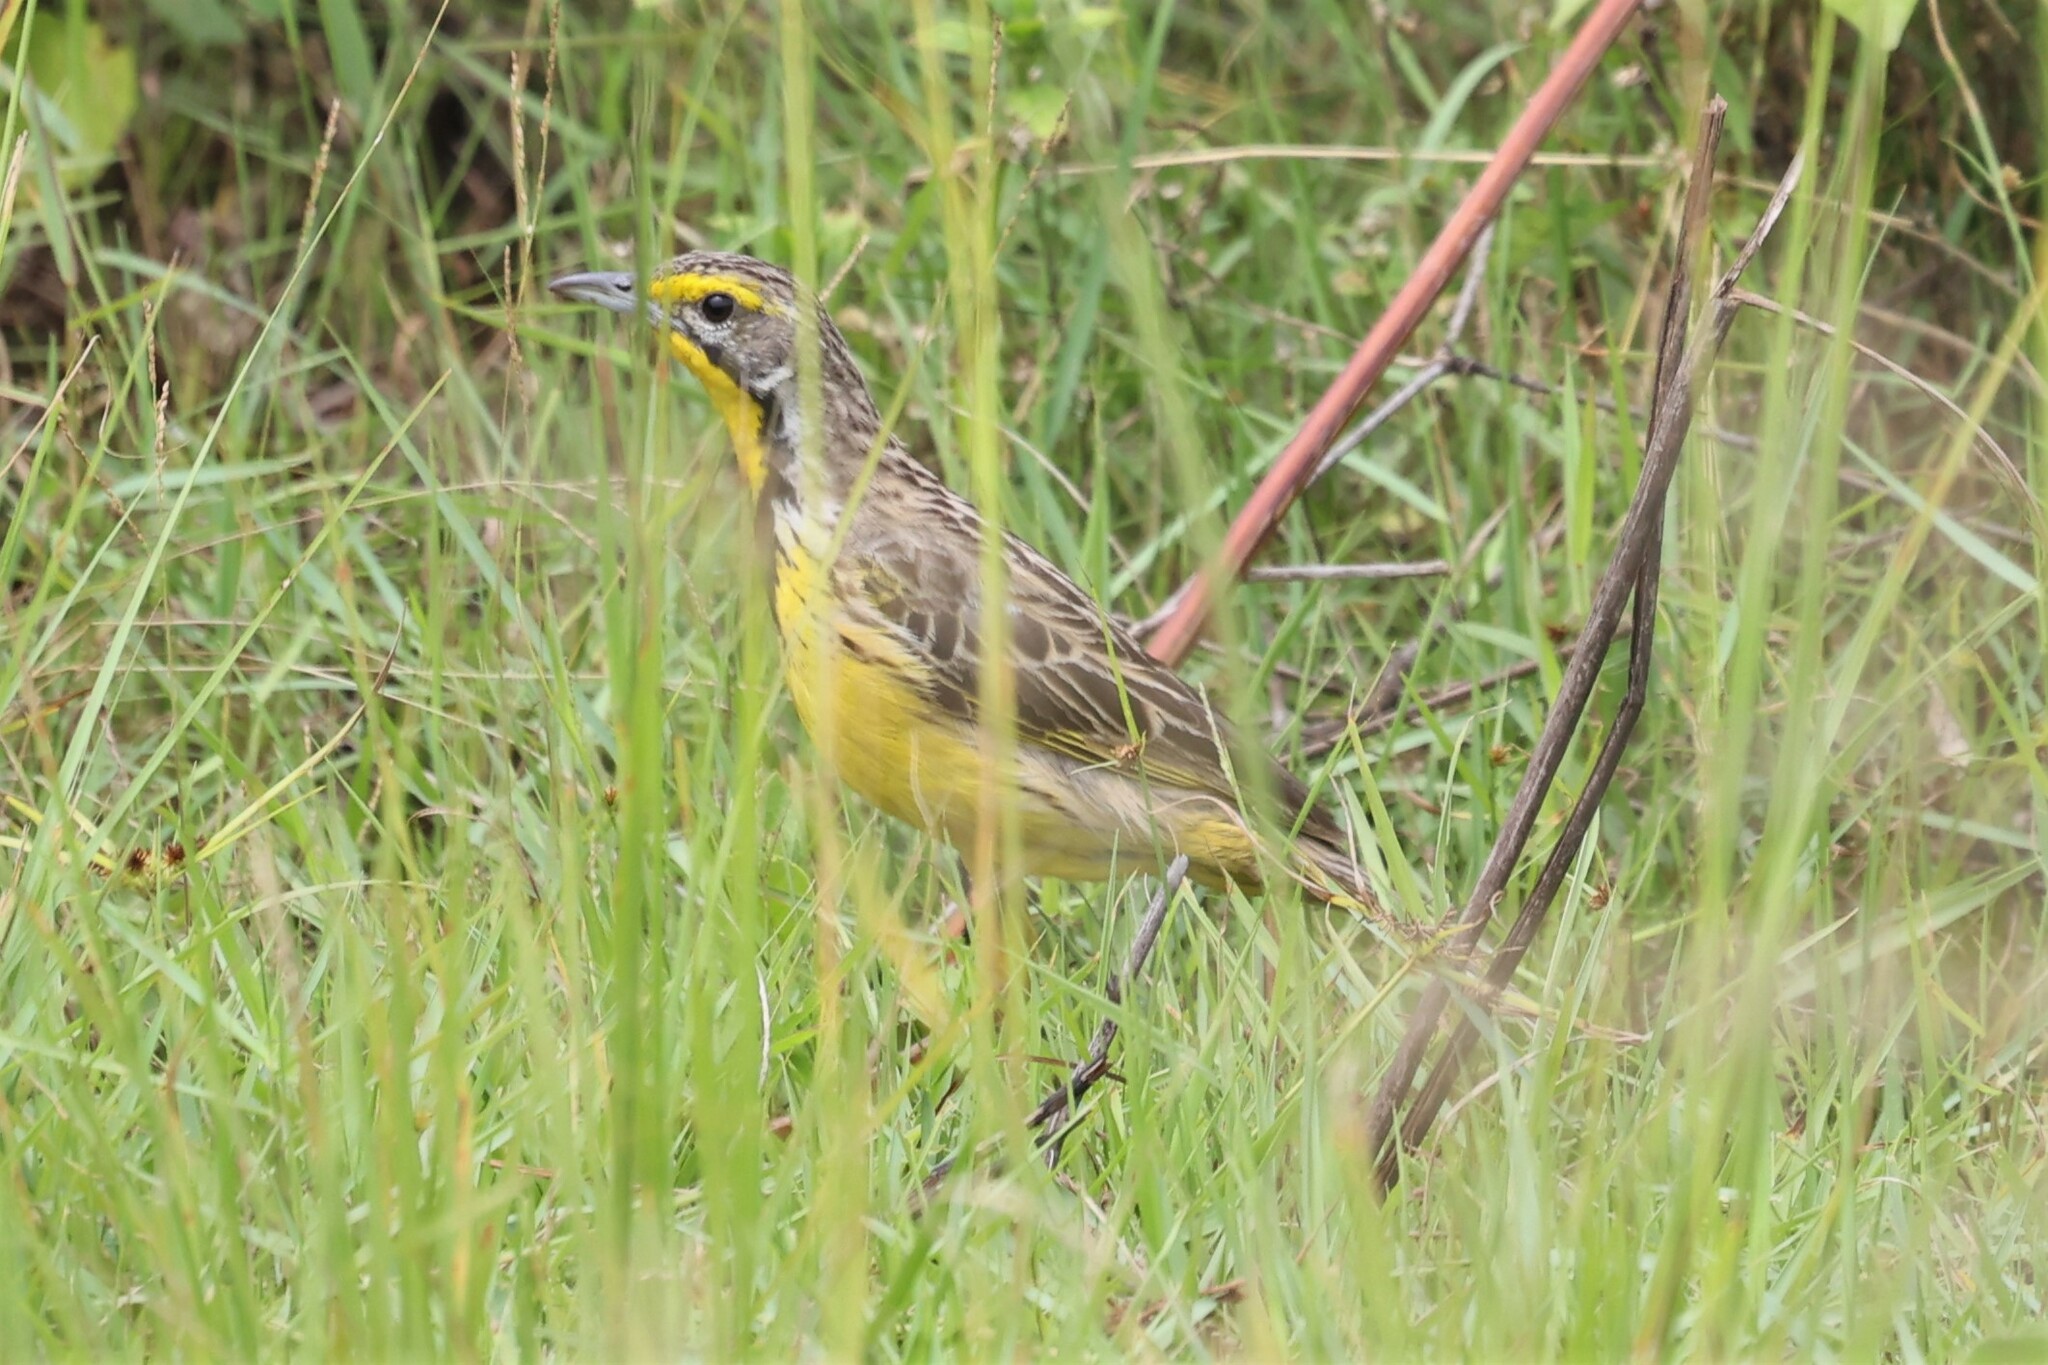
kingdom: Animalia
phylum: Chordata
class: Aves
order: Passeriformes
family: Motacillidae
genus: Macronyx
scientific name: Macronyx croceus
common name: Yellow-throated longclaw
